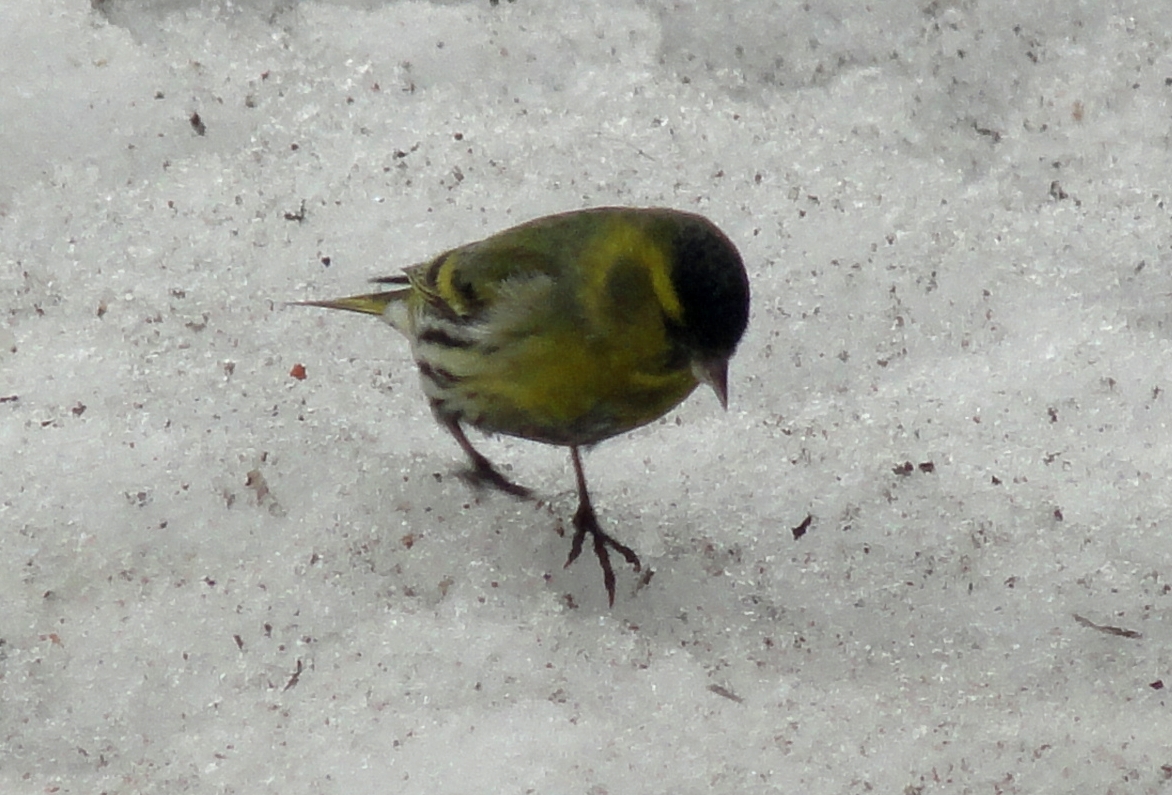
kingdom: Animalia
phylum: Chordata
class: Aves
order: Passeriformes
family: Fringillidae
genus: Spinus
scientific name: Spinus spinus
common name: Eurasian siskin
